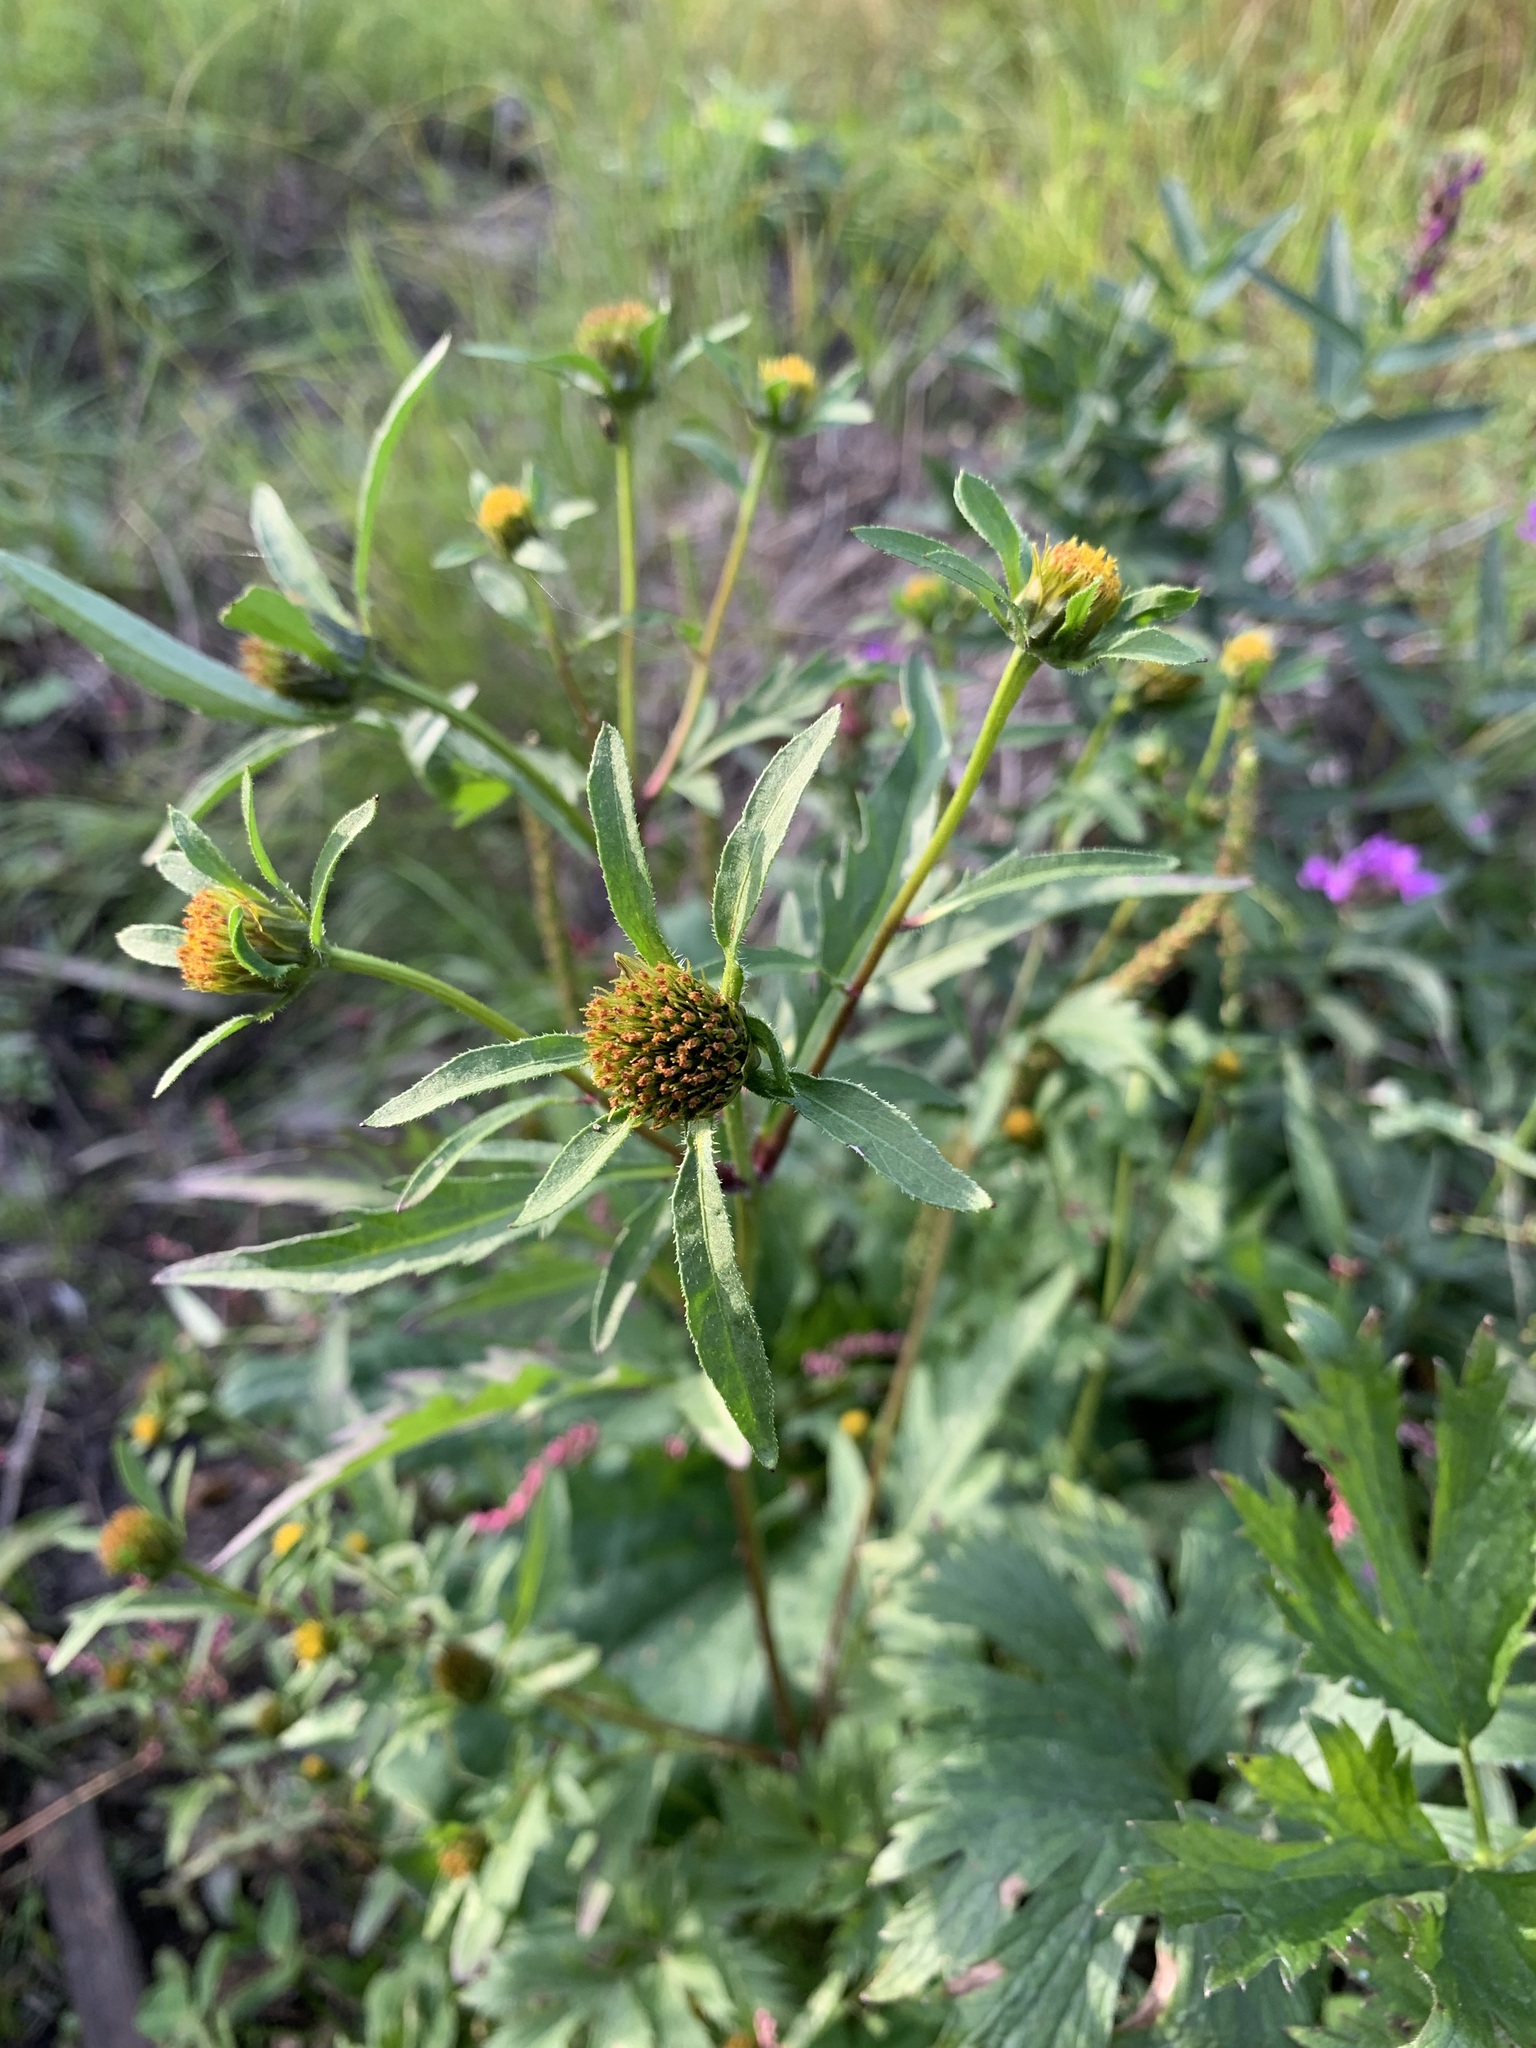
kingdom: Plantae
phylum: Tracheophyta
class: Magnoliopsida
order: Asterales
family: Asteraceae
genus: Bidens
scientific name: Bidens tripartita
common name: Trifid bur-marigold
